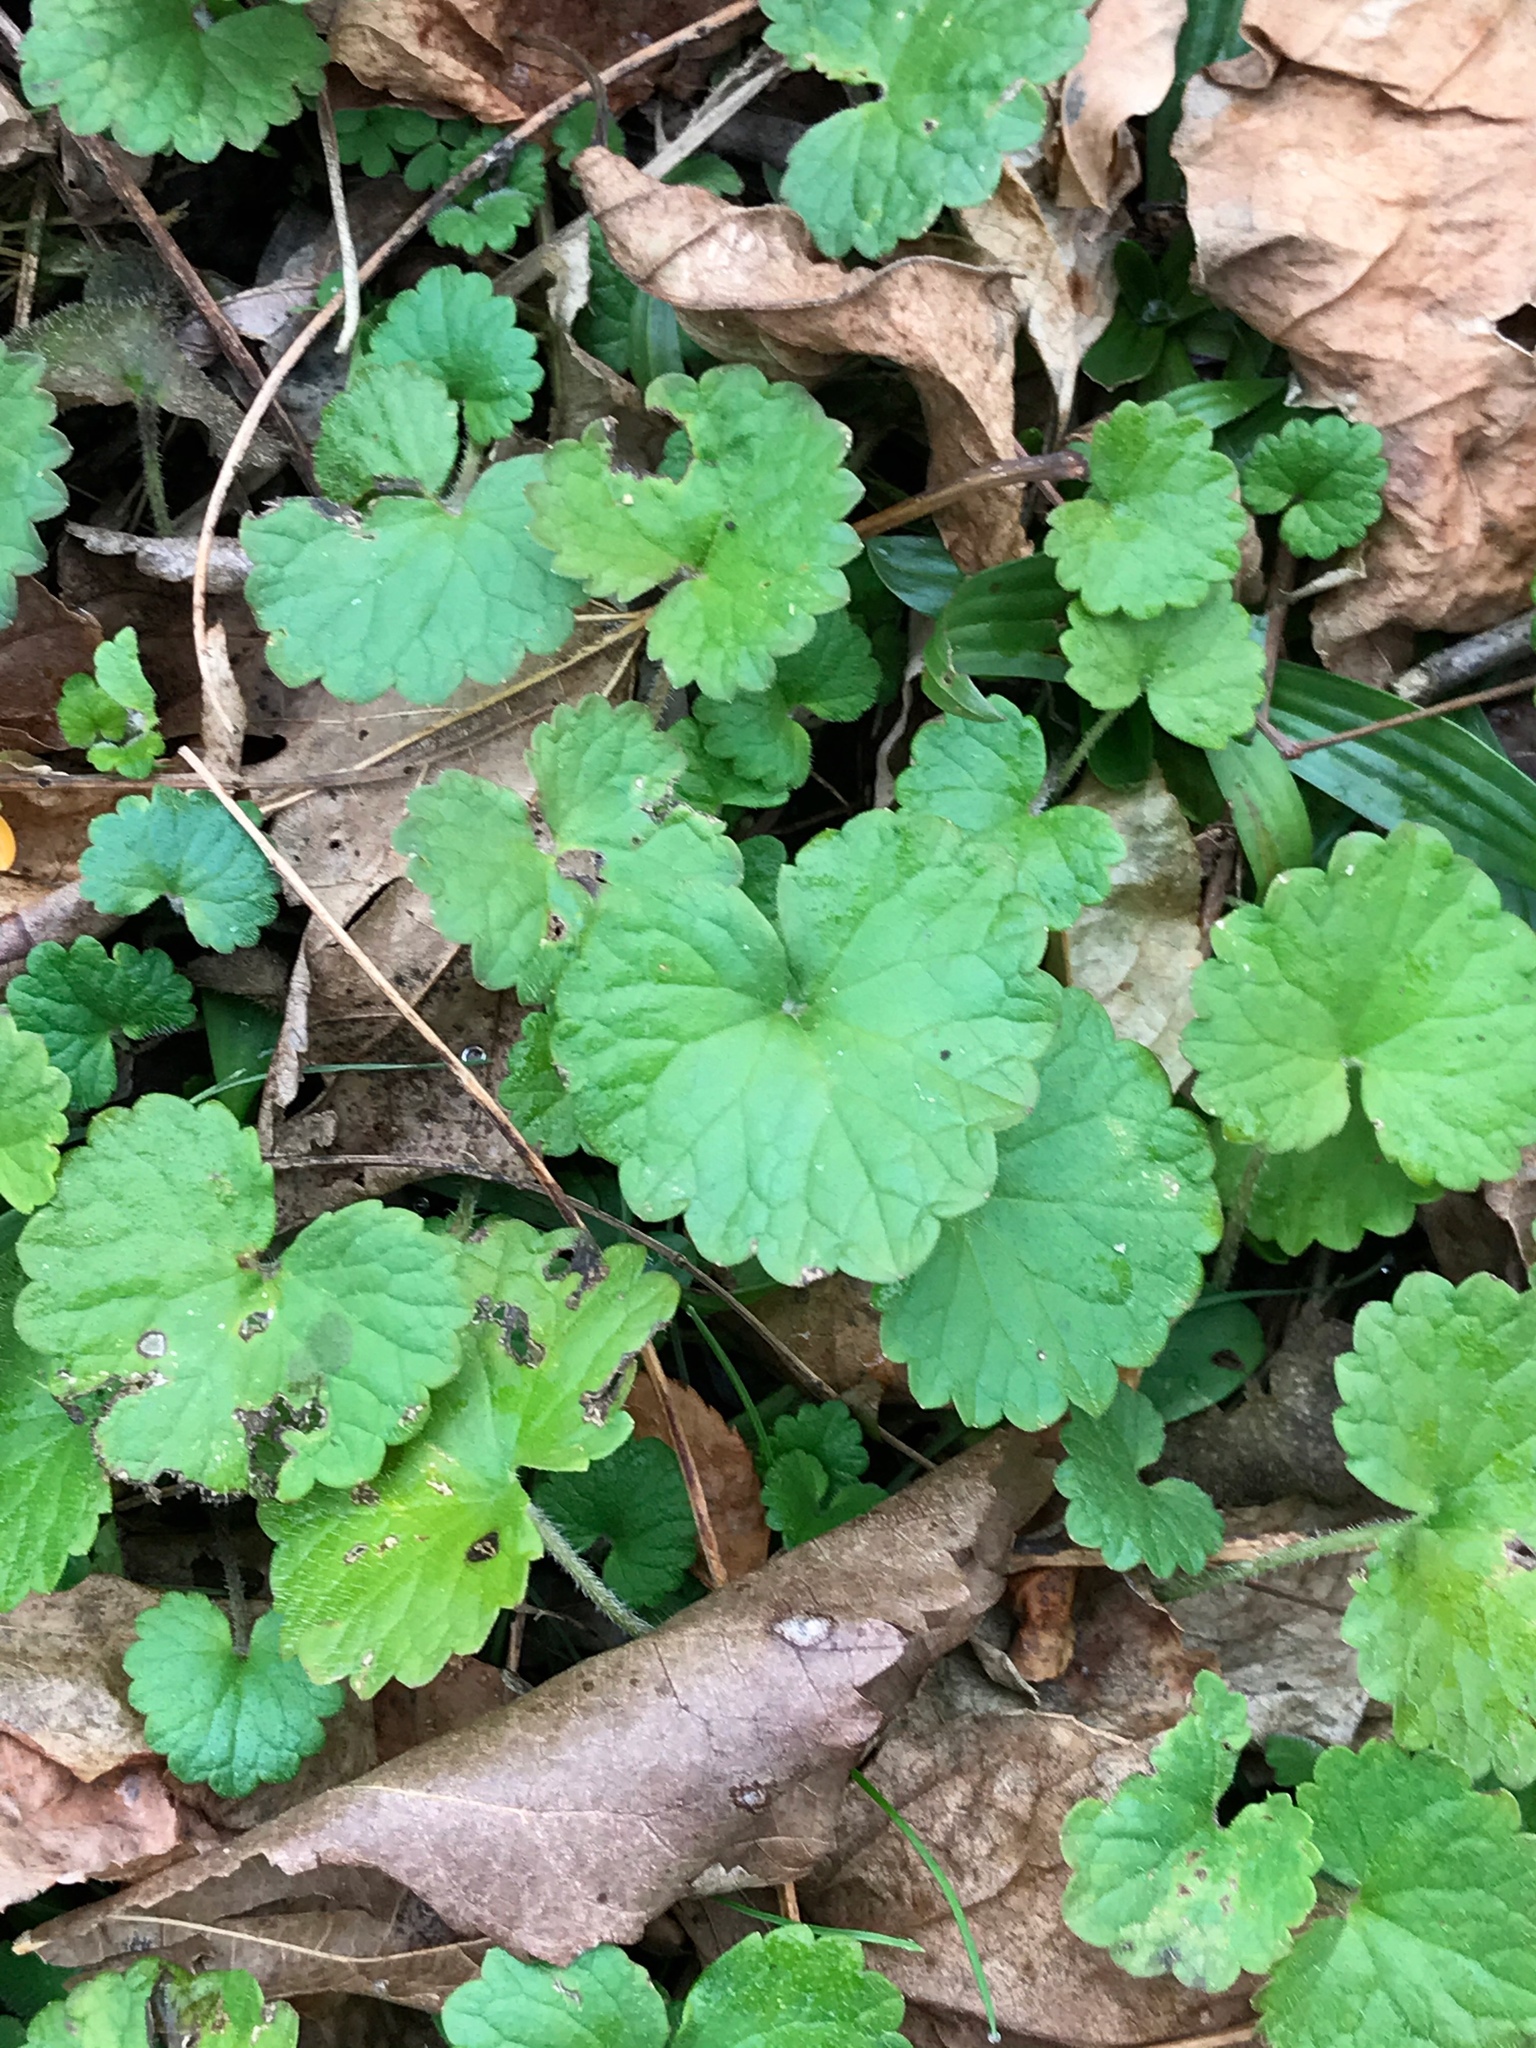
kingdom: Plantae
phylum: Tracheophyta
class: Magnoliopsida
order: Lamiales
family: Lamiaceae
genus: Glechoma
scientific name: Glechoma hederacea
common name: Ground ivy
